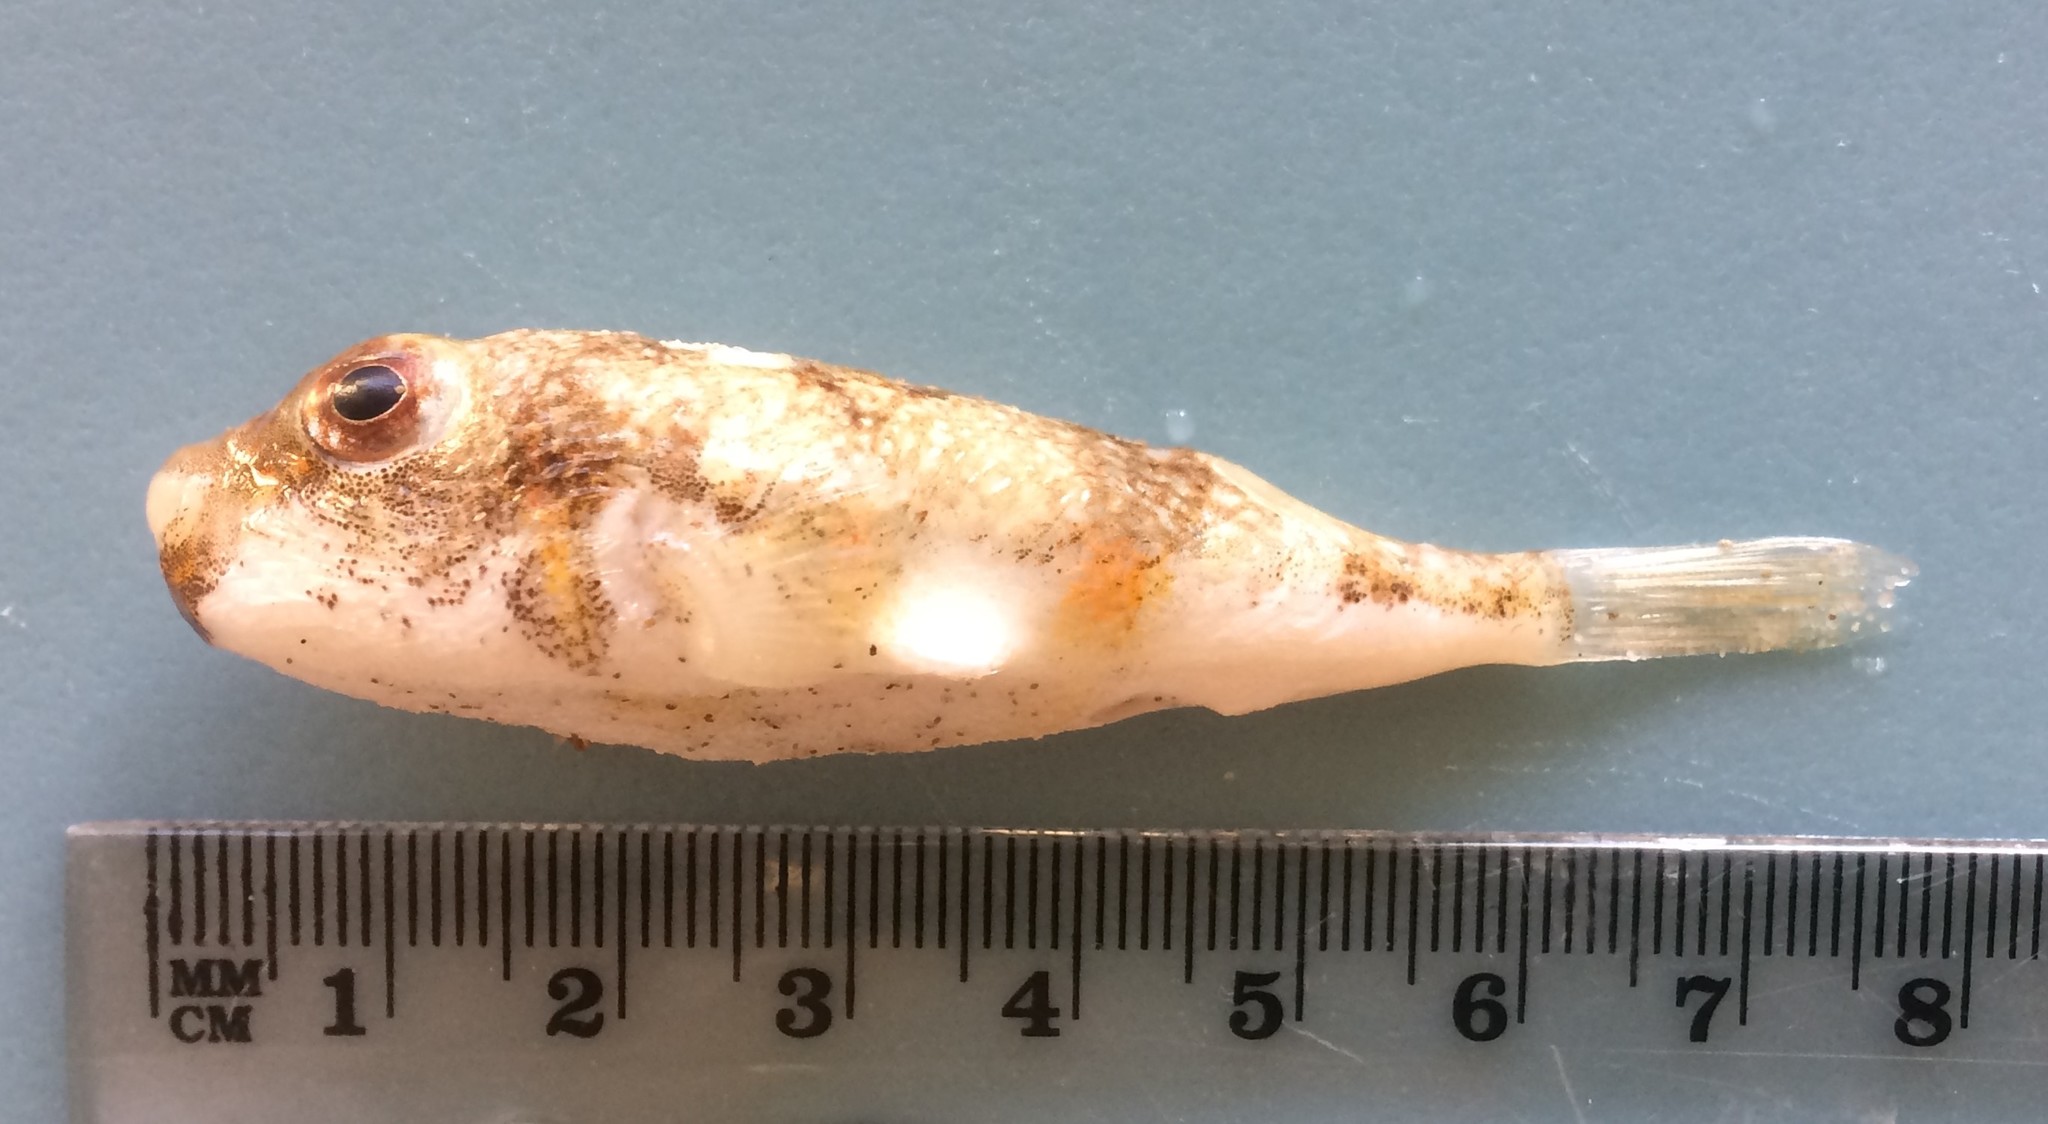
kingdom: Animalia
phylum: Chordata
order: Tetraodontiformes
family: Tetraodontidae
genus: Polyspina
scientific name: Polyspina piosae
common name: Orange-barred pufferfish
